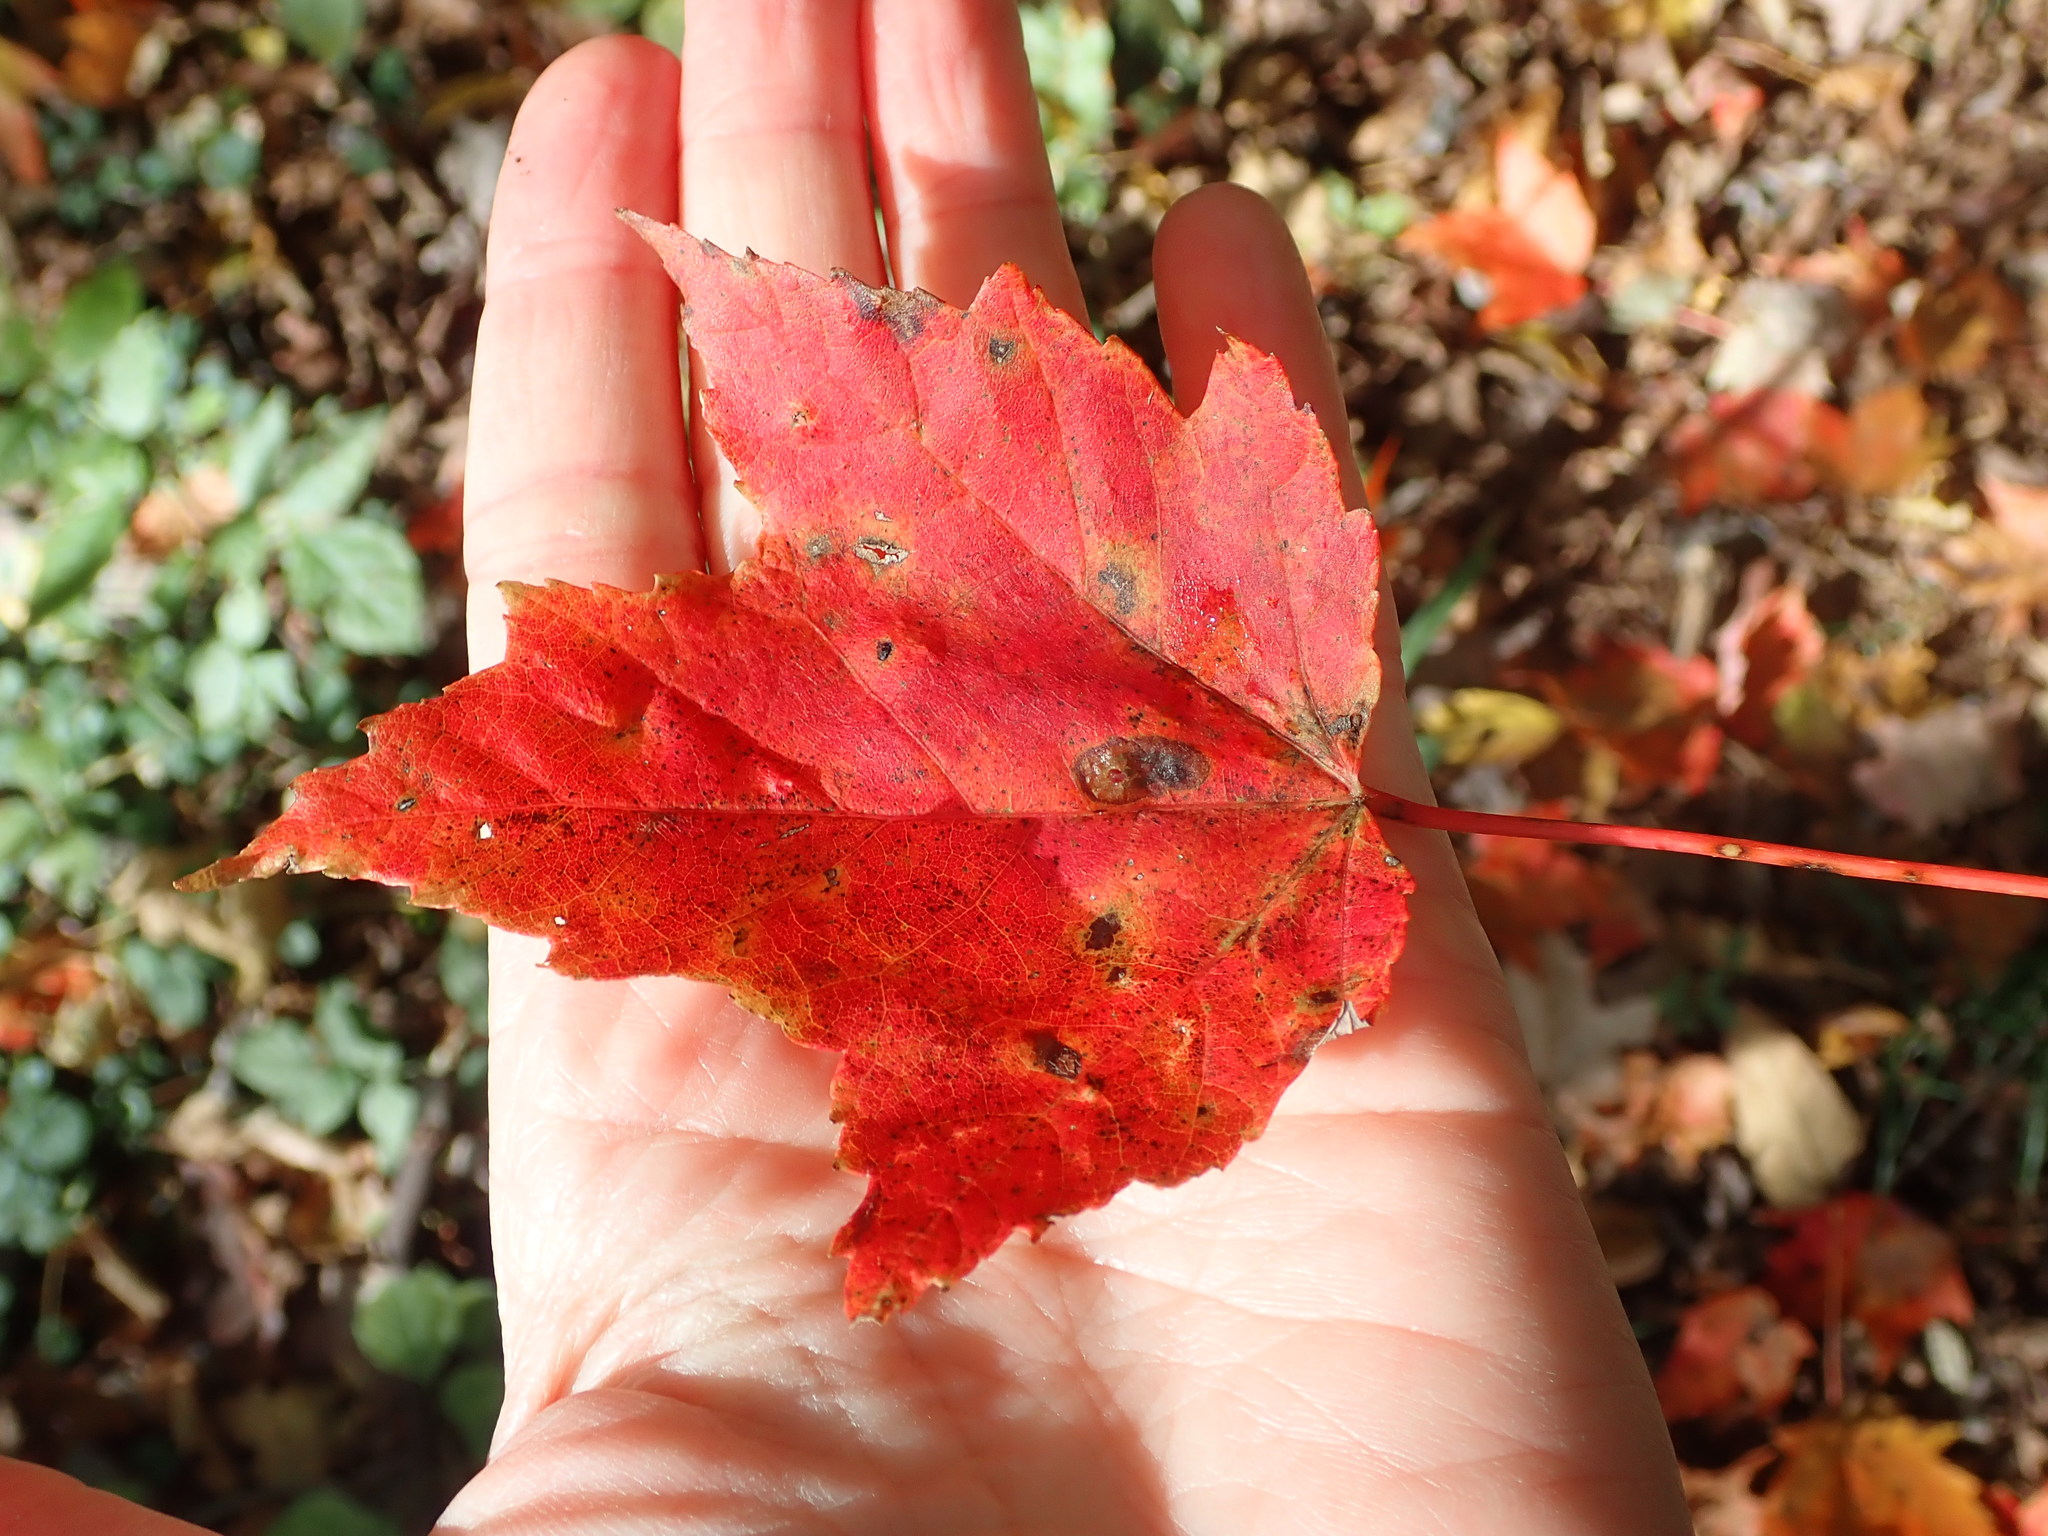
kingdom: Plantae
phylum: Tracheophyta
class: Magnoliopsida
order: Sapindales
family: Sapindaceae
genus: Acer
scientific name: Acer rubrum
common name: Red maple
